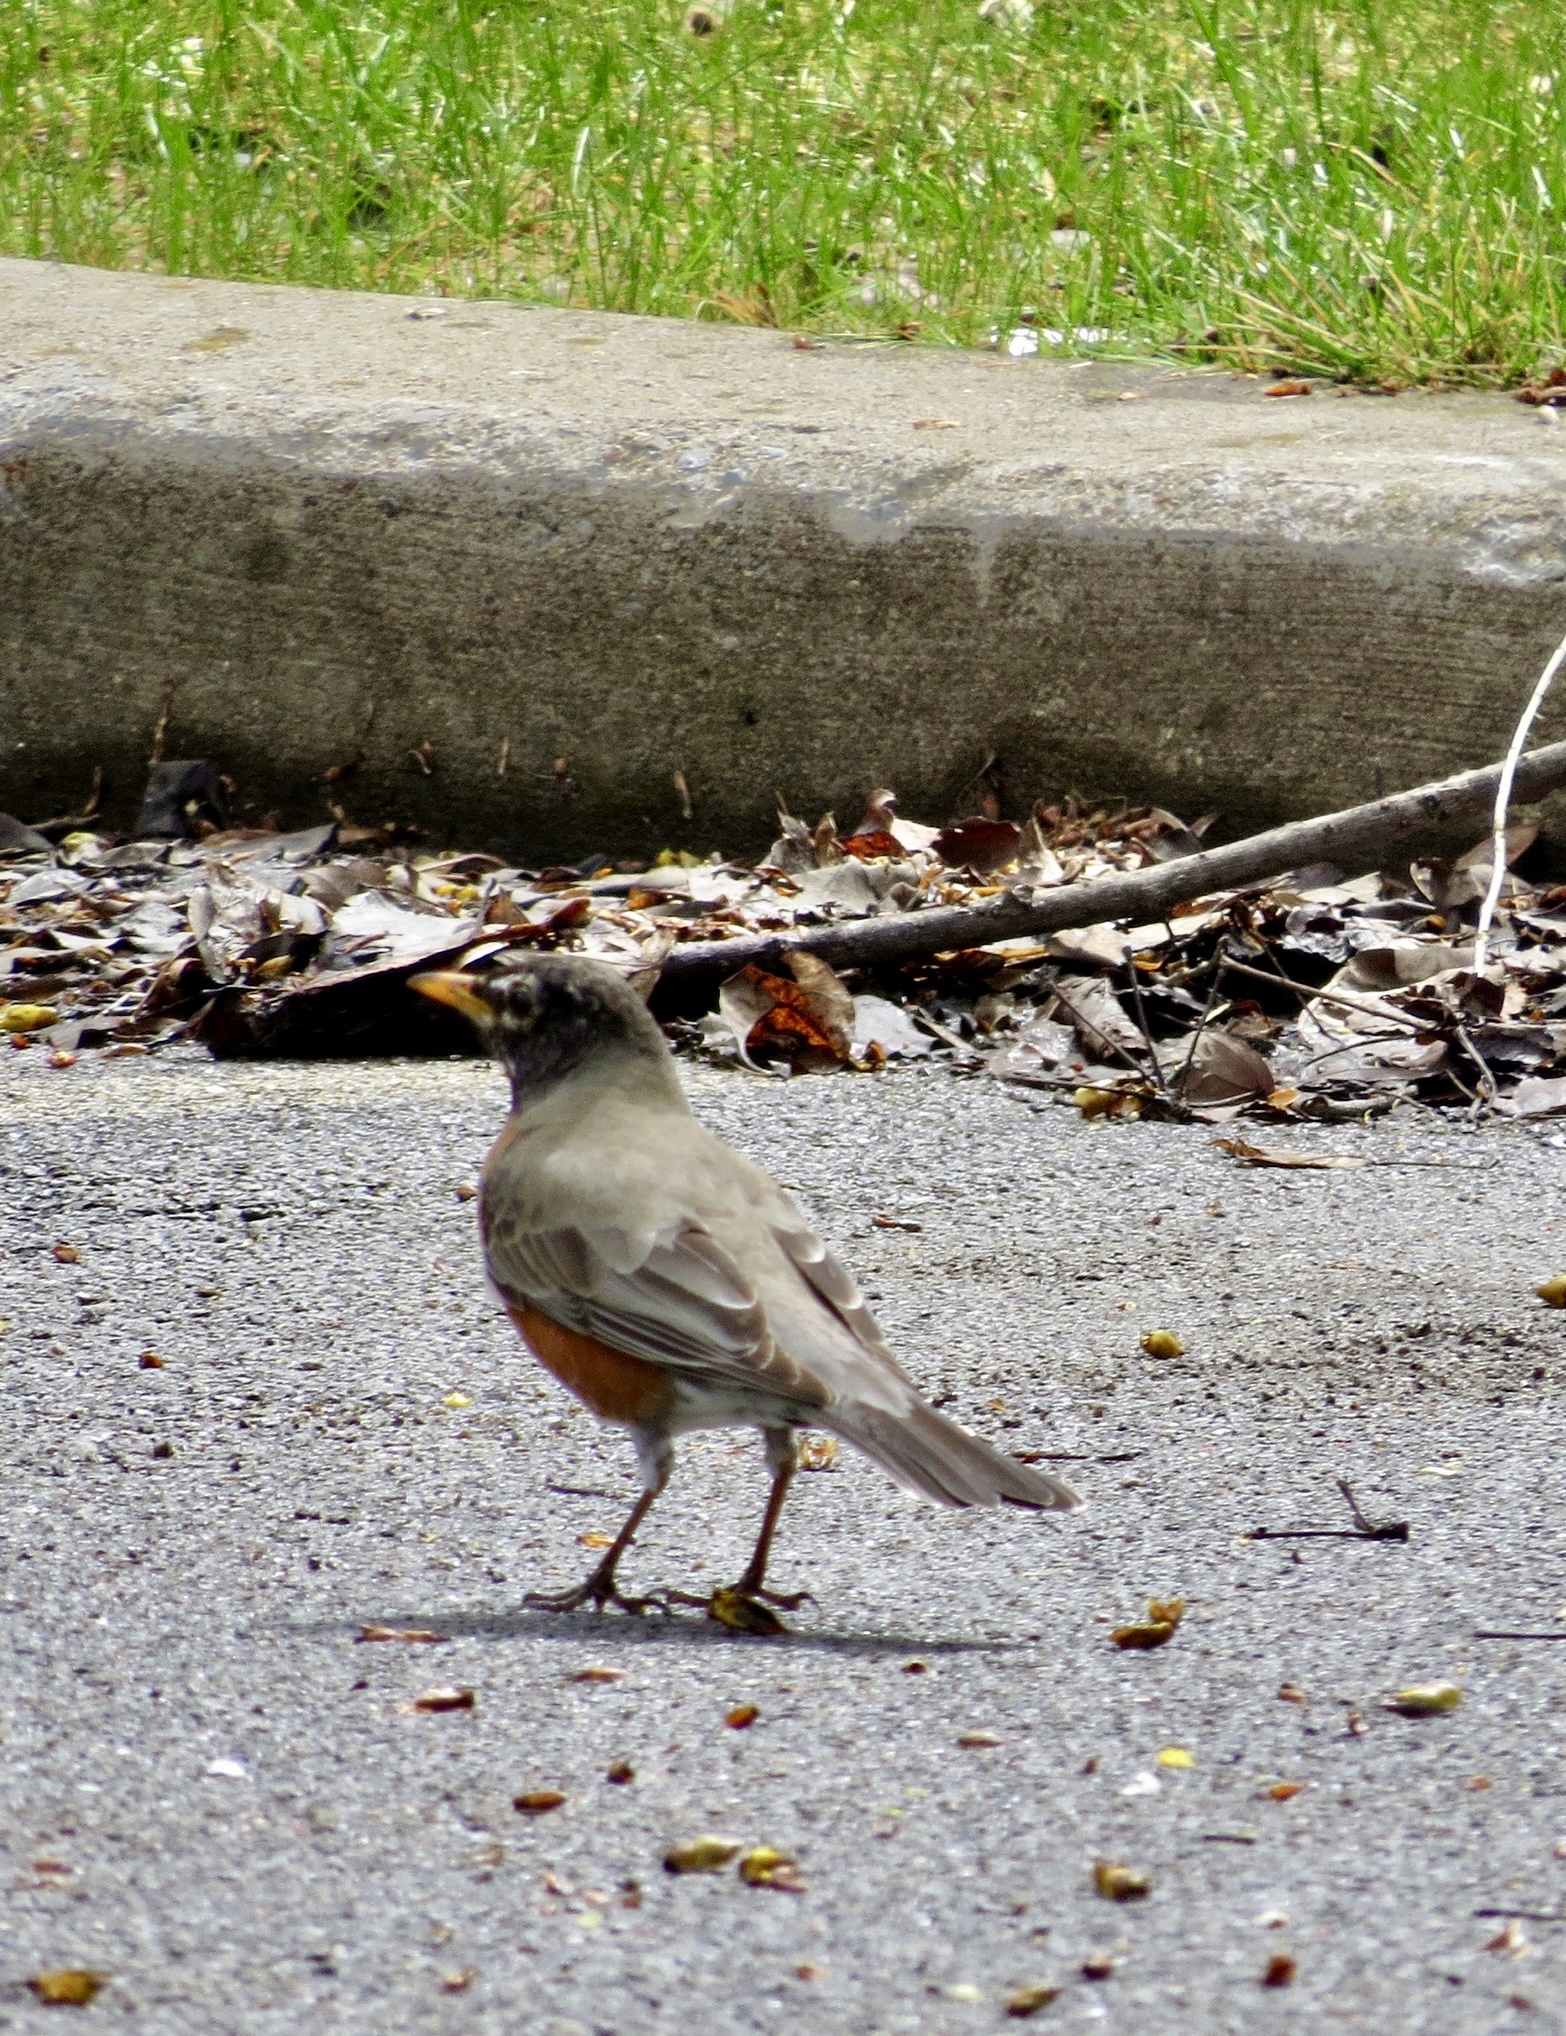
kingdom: Animalia
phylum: Chordata
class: Aves
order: Passeriformes
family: Turdidae
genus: Turdus
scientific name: Turdus migratorius
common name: American robin
